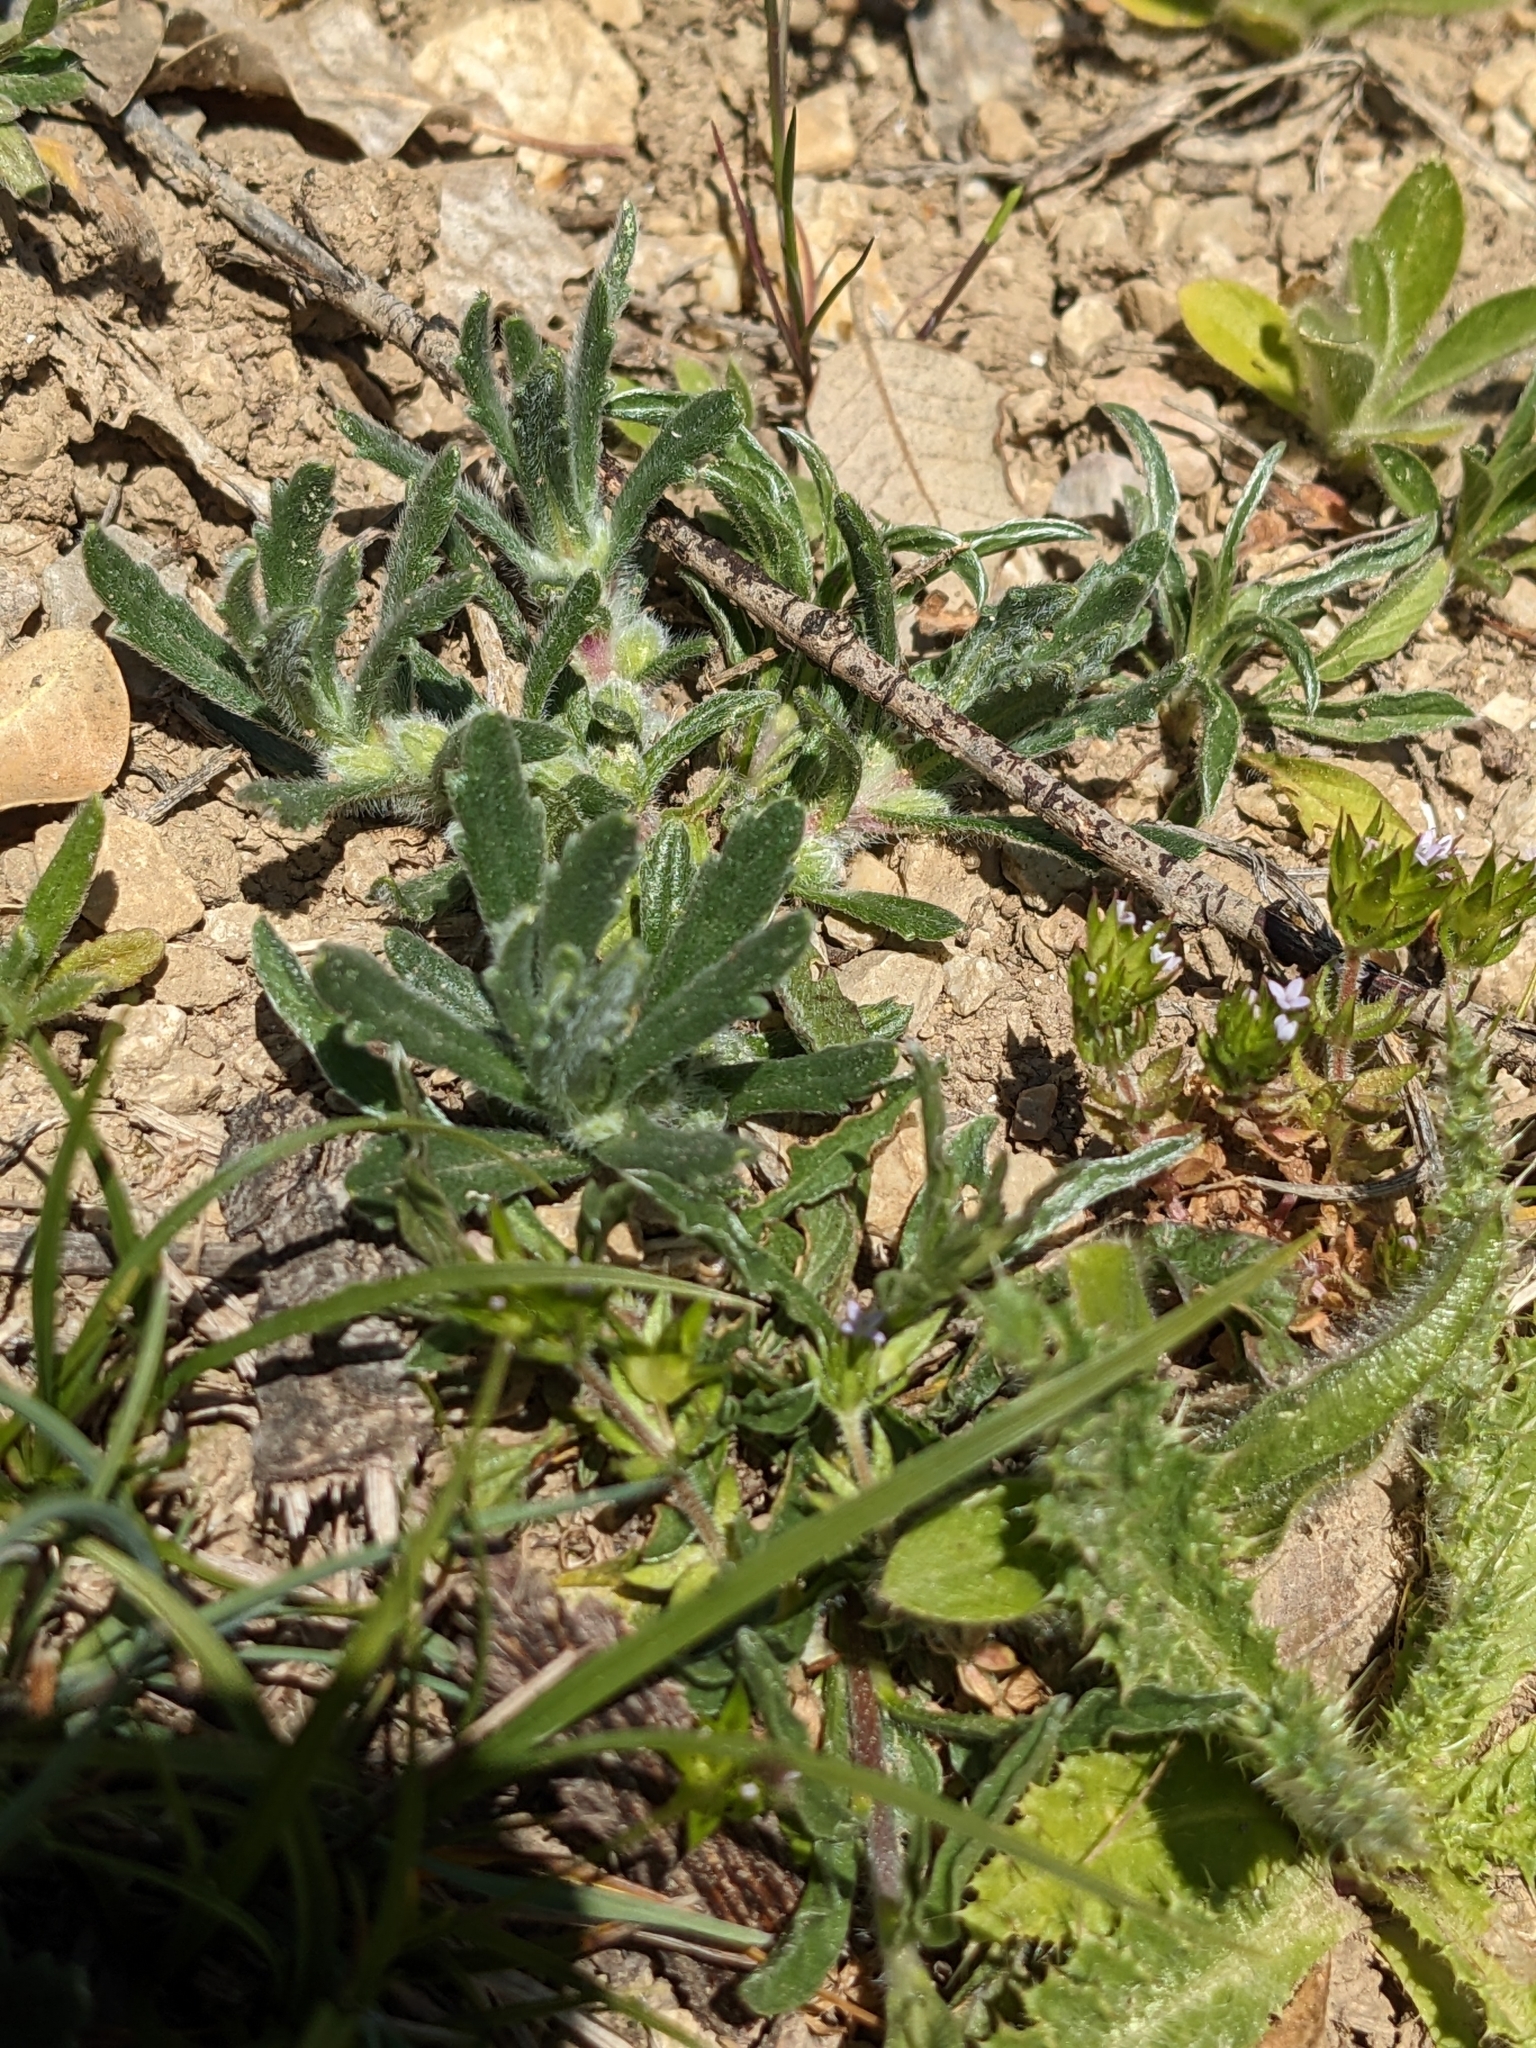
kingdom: Plantae
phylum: Tracheophyta
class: Magnoliopsida
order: Lamiales
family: Lamiaceae
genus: Ajuga
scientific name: Ajuga iva
